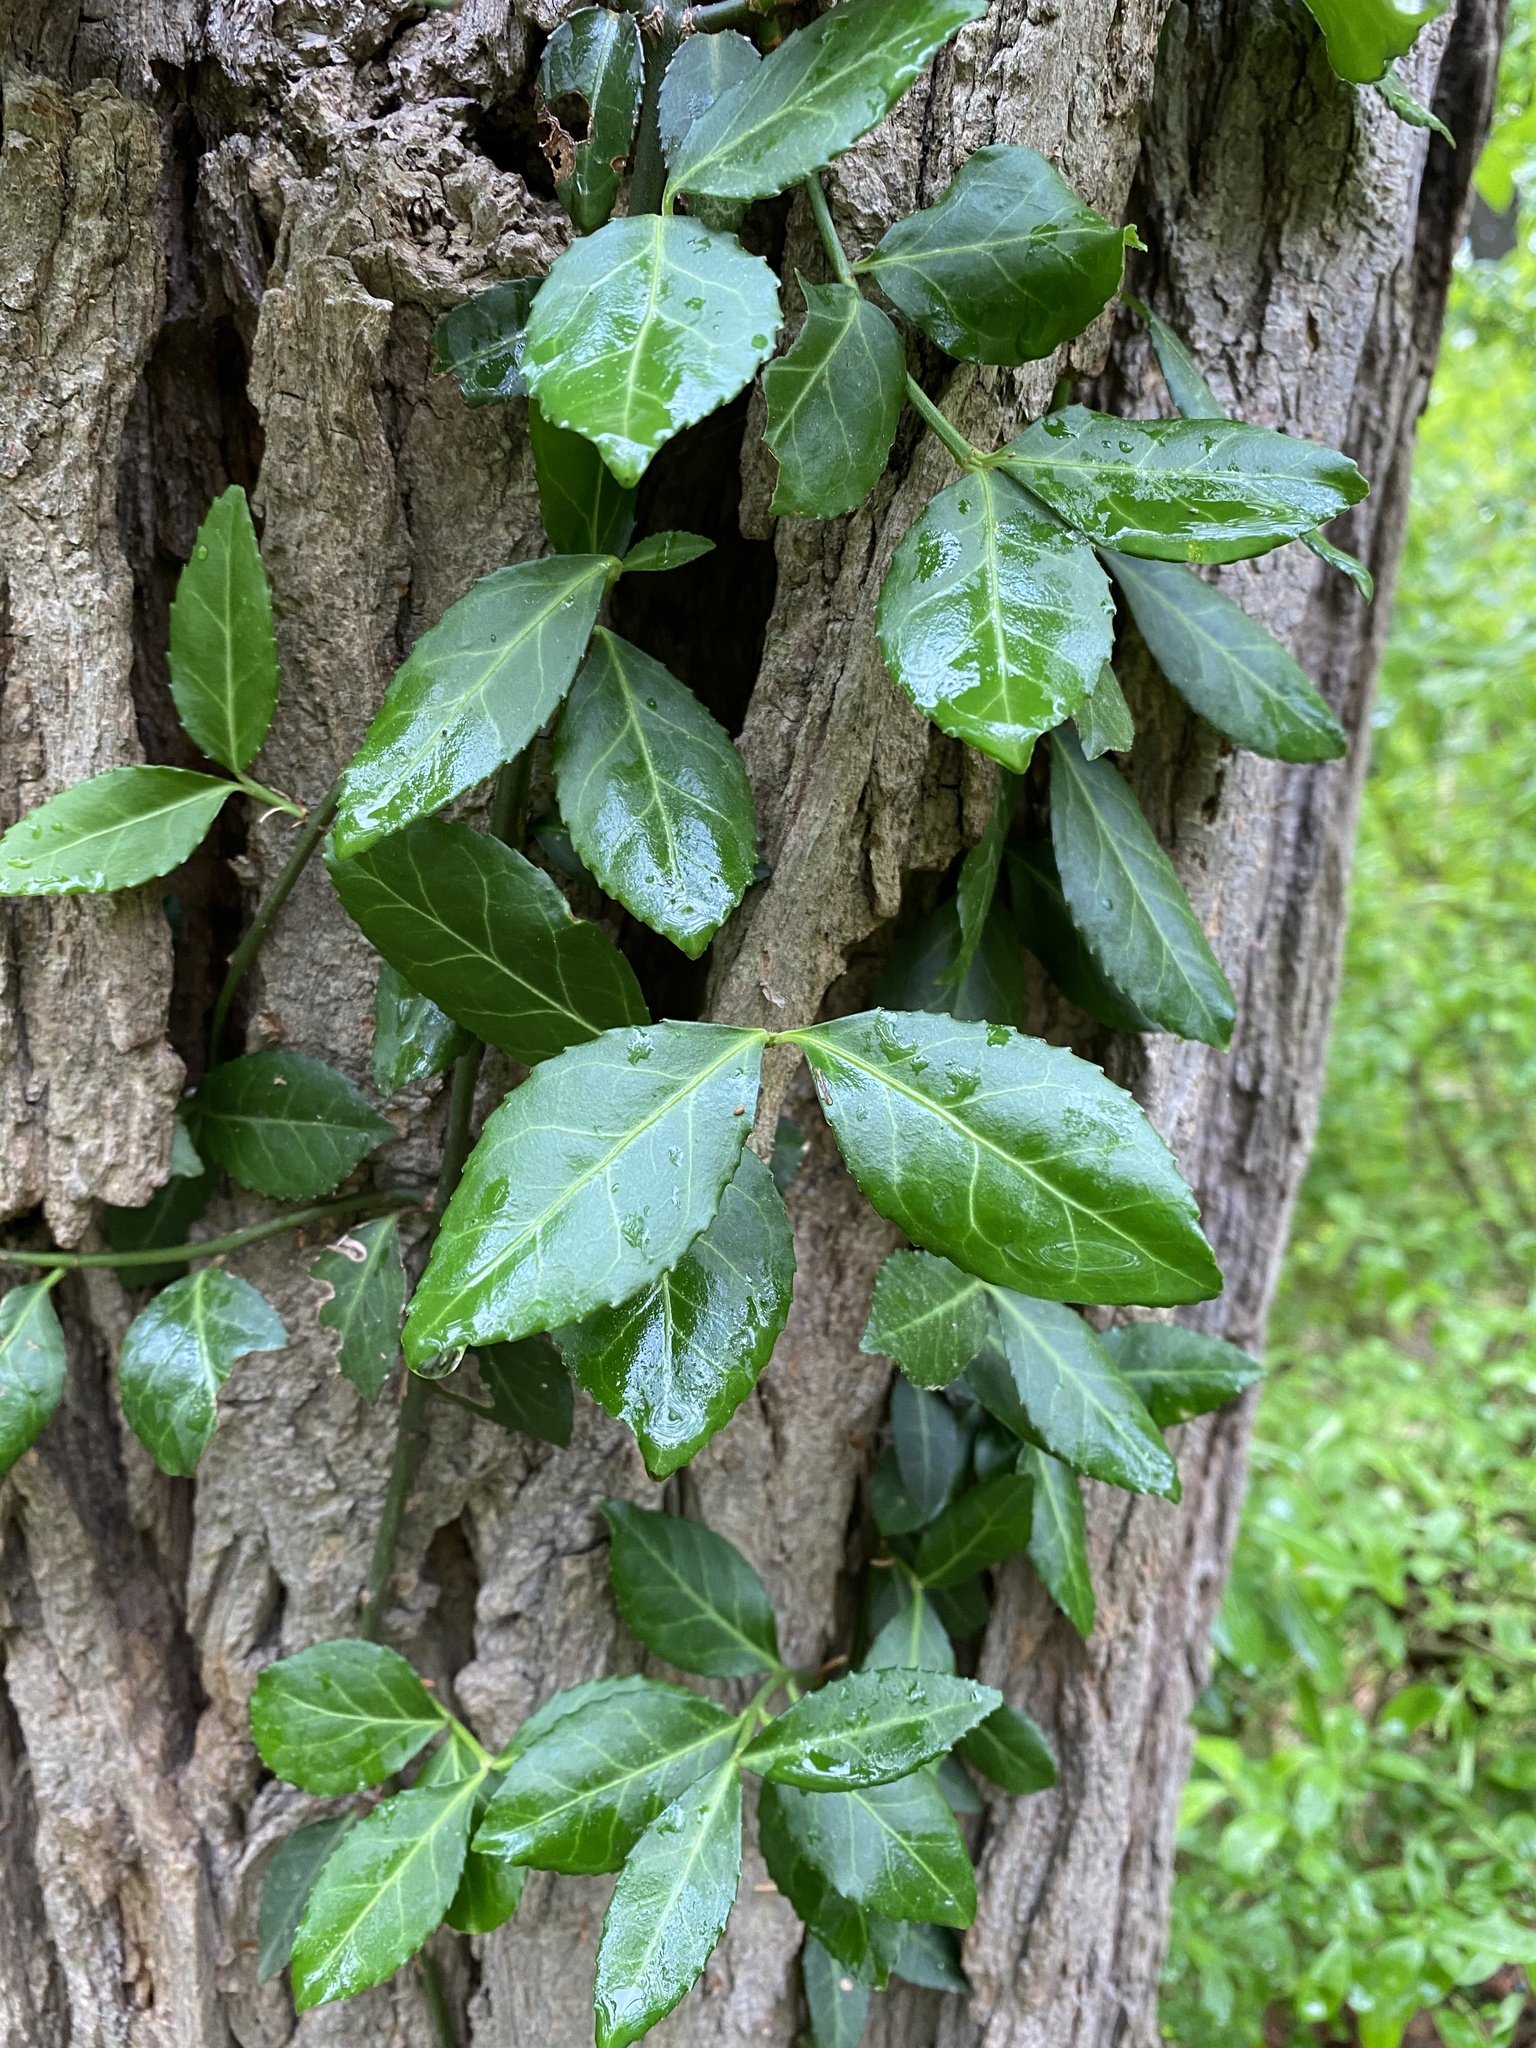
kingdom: Plantae
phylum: Tracheophyta
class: Magnoliopsida
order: Celastrales
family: Celastraceae
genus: Euonymus
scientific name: Euonymus fortunei
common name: Climbing euonymus
